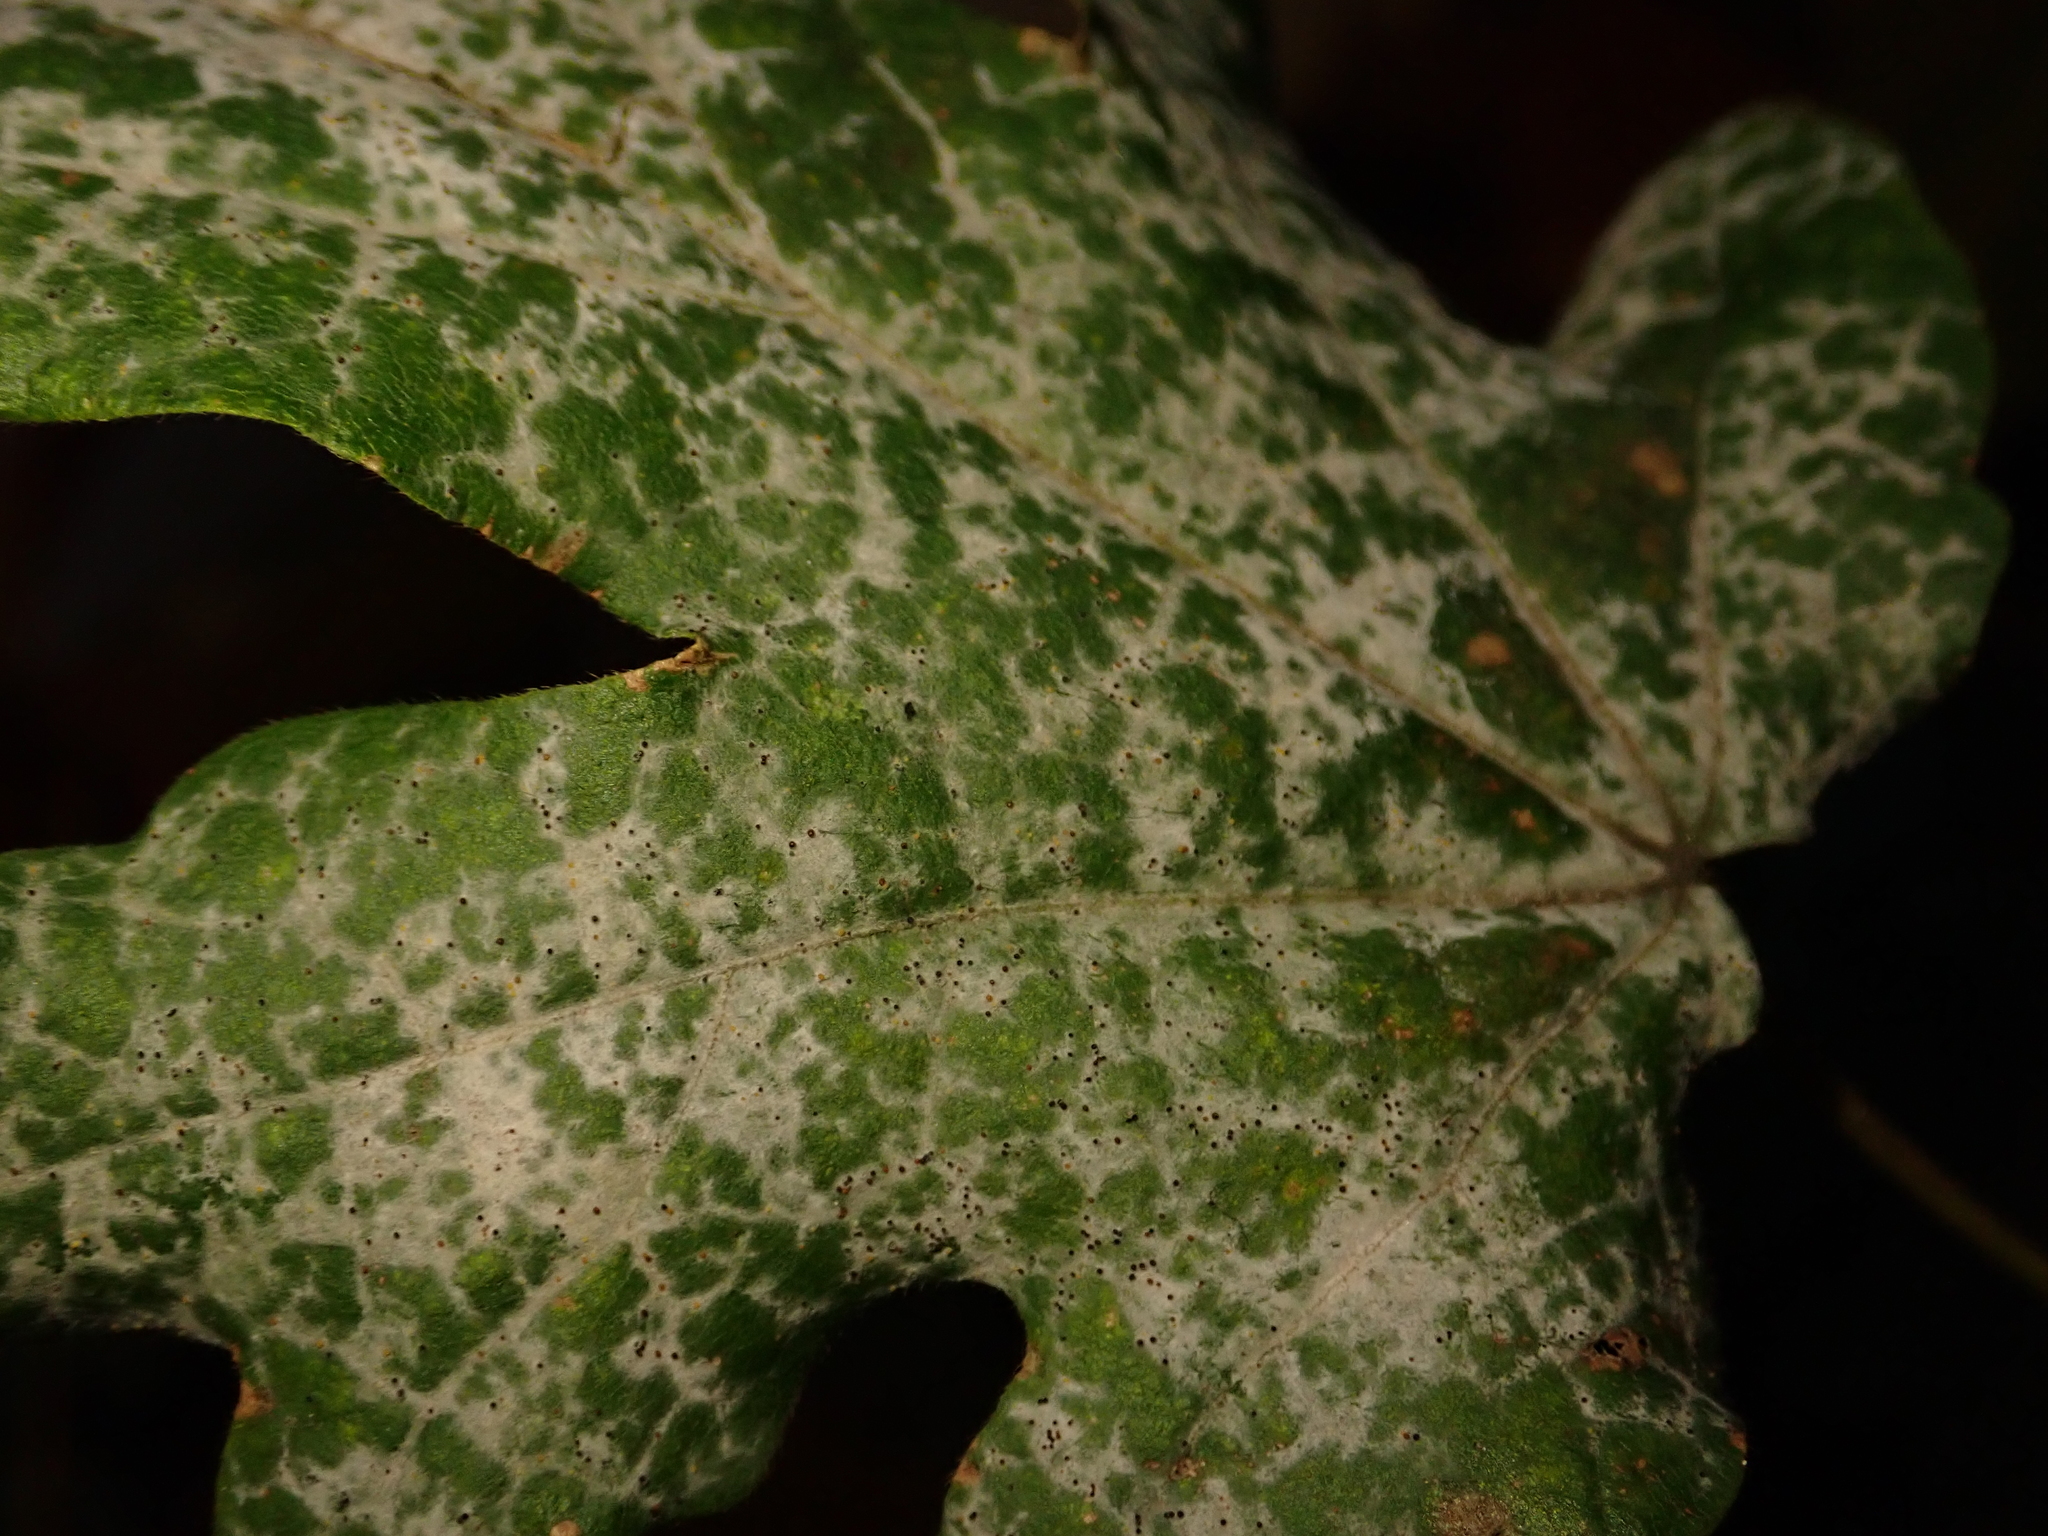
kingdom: Fungi
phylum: Ascomycota
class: Leotiomycetes
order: Helotiales
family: Erysiphaceae
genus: Sawadaea
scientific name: Sawadaea bicornis
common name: Maple mildew
